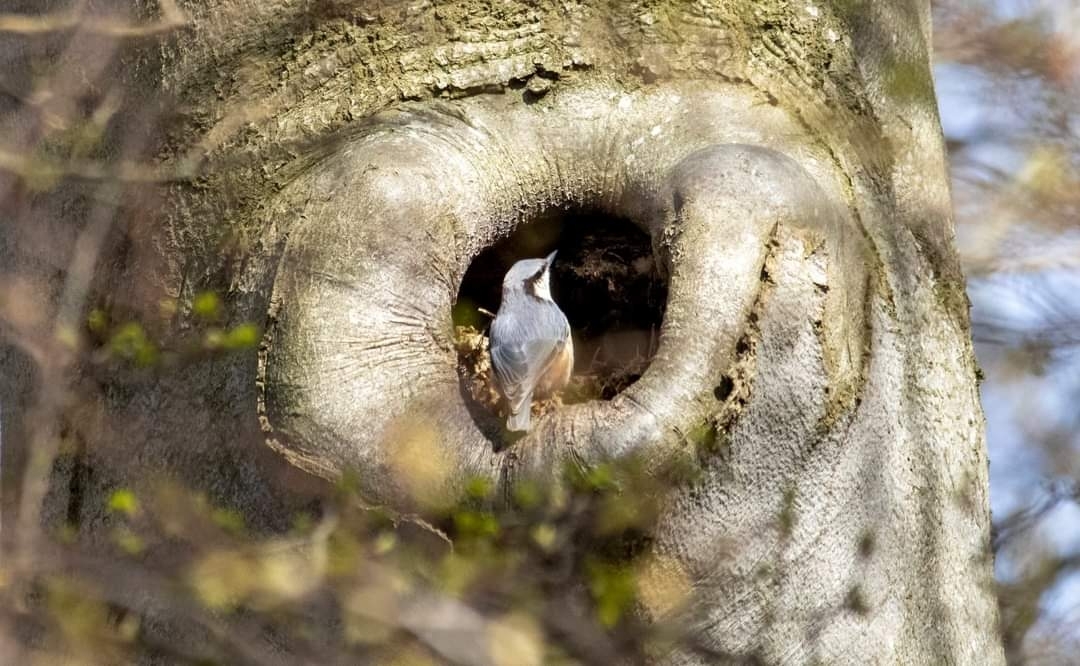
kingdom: Animalia
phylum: Chordata
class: Aves
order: Passeriformes
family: Sittidae
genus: Sitta
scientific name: Sitta europaea
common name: Eurasian nuthatch
